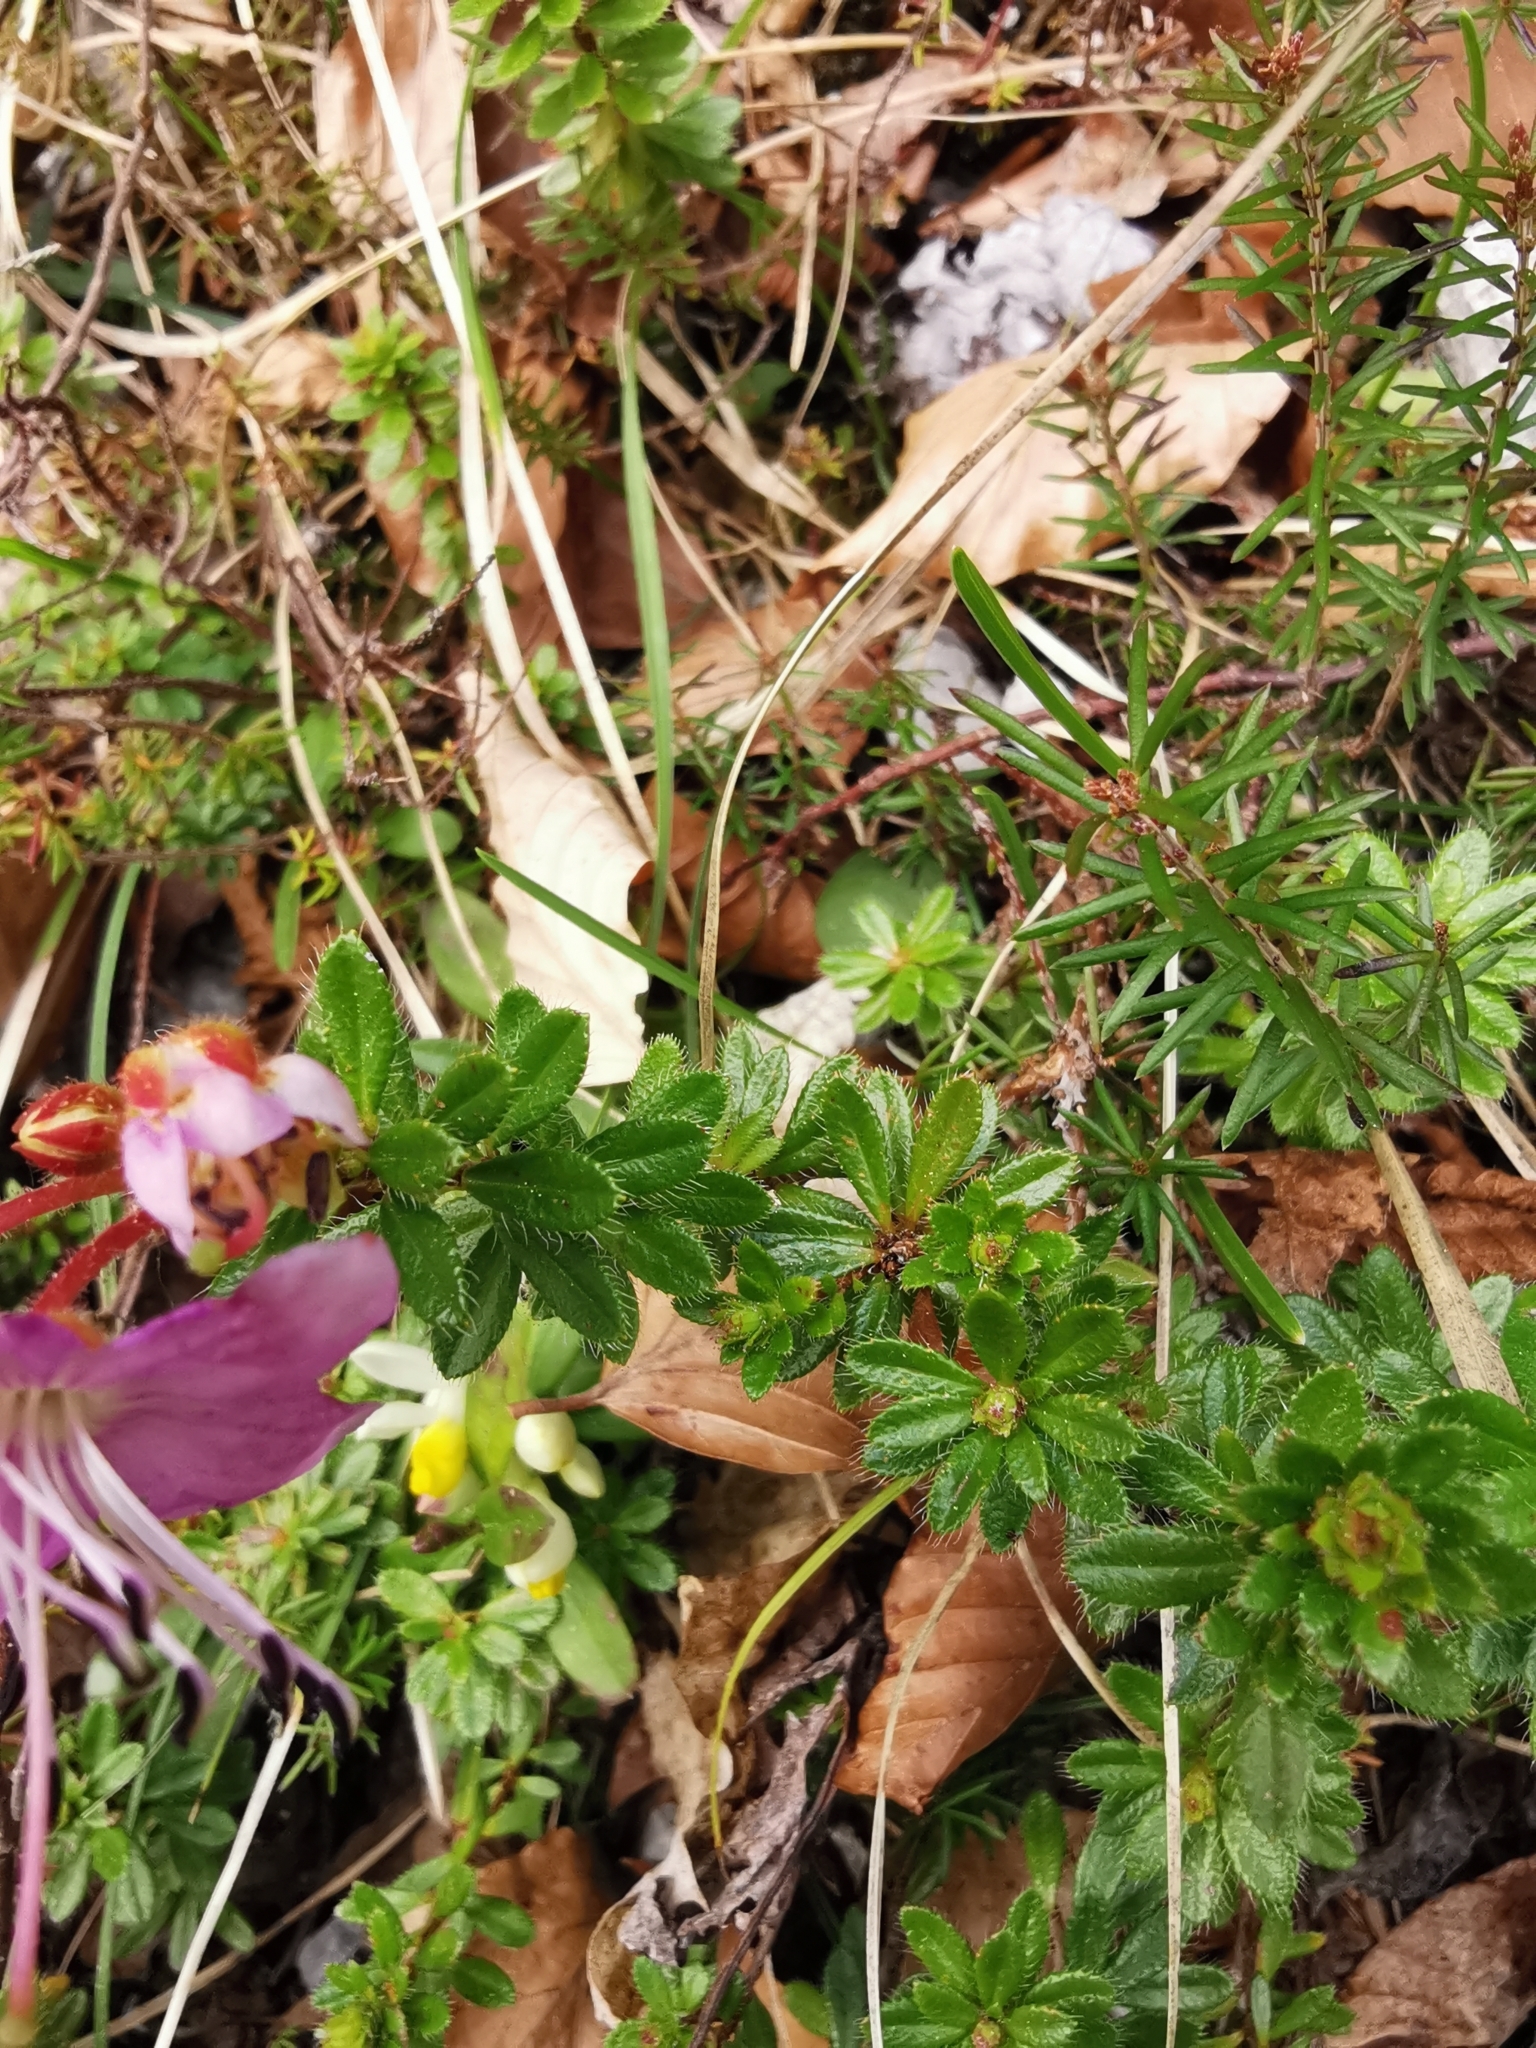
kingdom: Plantae
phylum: Tracheophyta
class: Magnoliopsida
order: Ericales
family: Ericaceae
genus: Rhodothamnus
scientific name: Rhodothamnus chamaecistus
